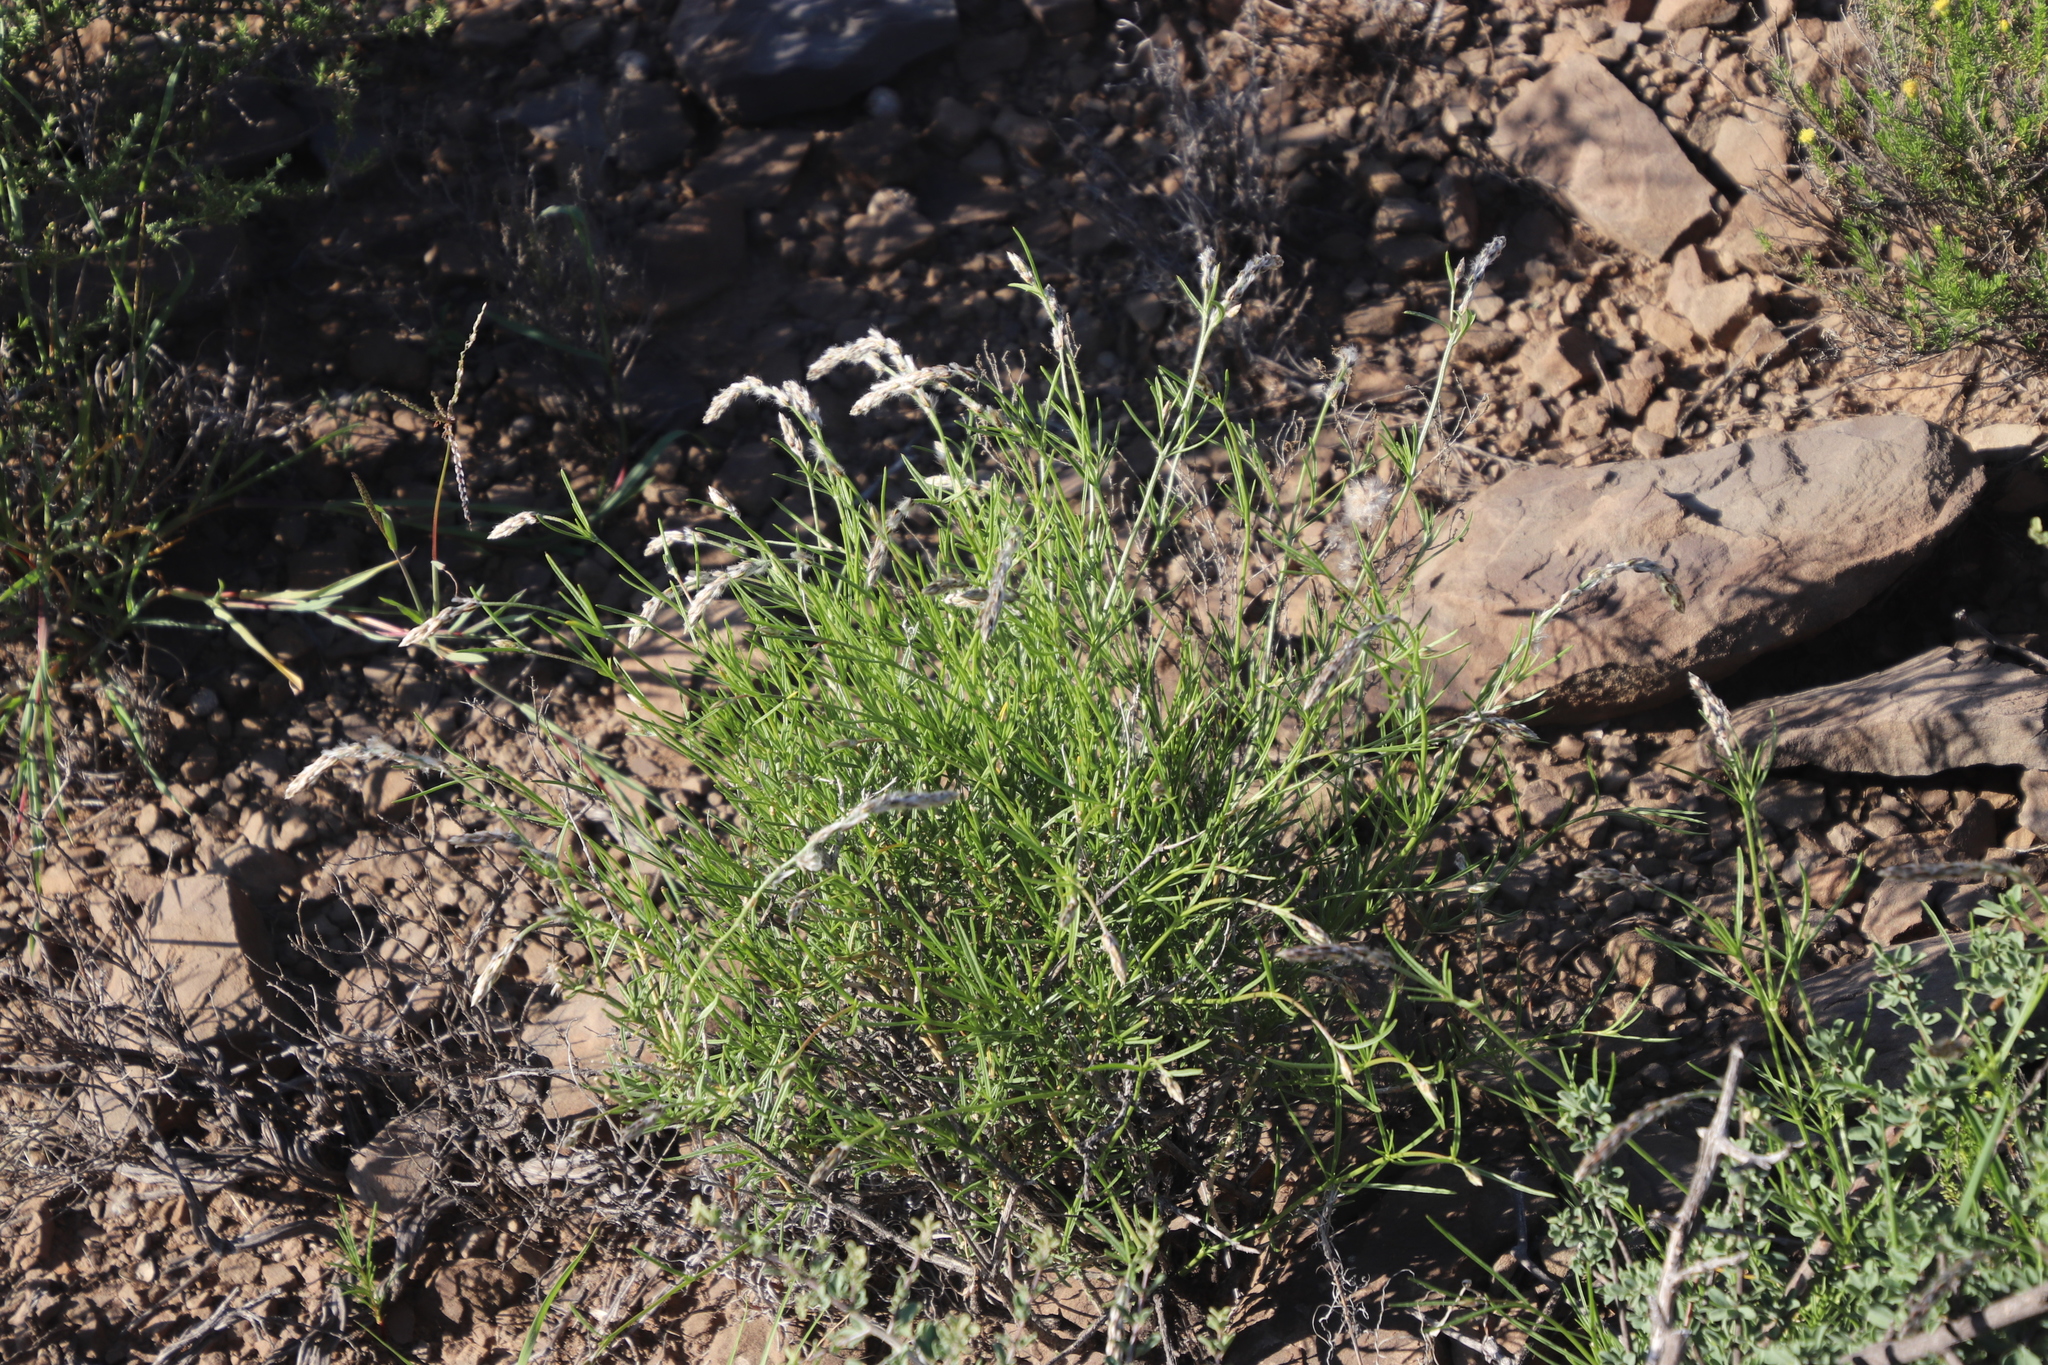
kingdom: Plantae
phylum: Tracheophyta
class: Magnoliopsida
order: Caryophyllales
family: Amaranthaceae
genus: Sericocoma
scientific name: Sericocoma avolans
